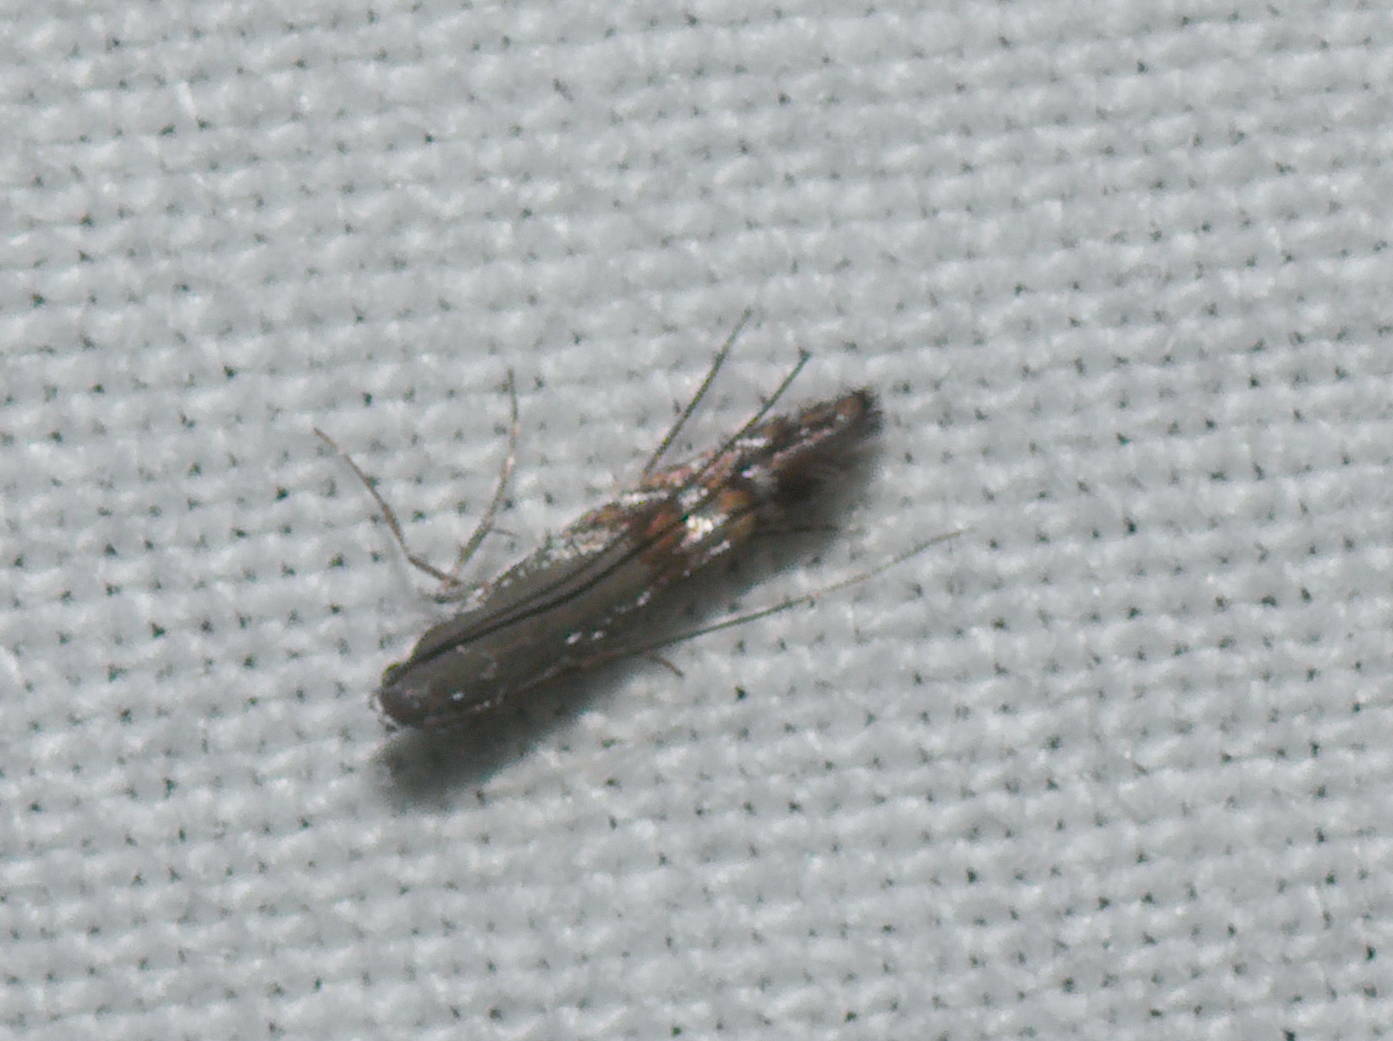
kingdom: Animalia
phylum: Arthropoda
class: Insecta
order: Lepidoptera
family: Gracillariidae
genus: Philodoria
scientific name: Philodoria basalis
